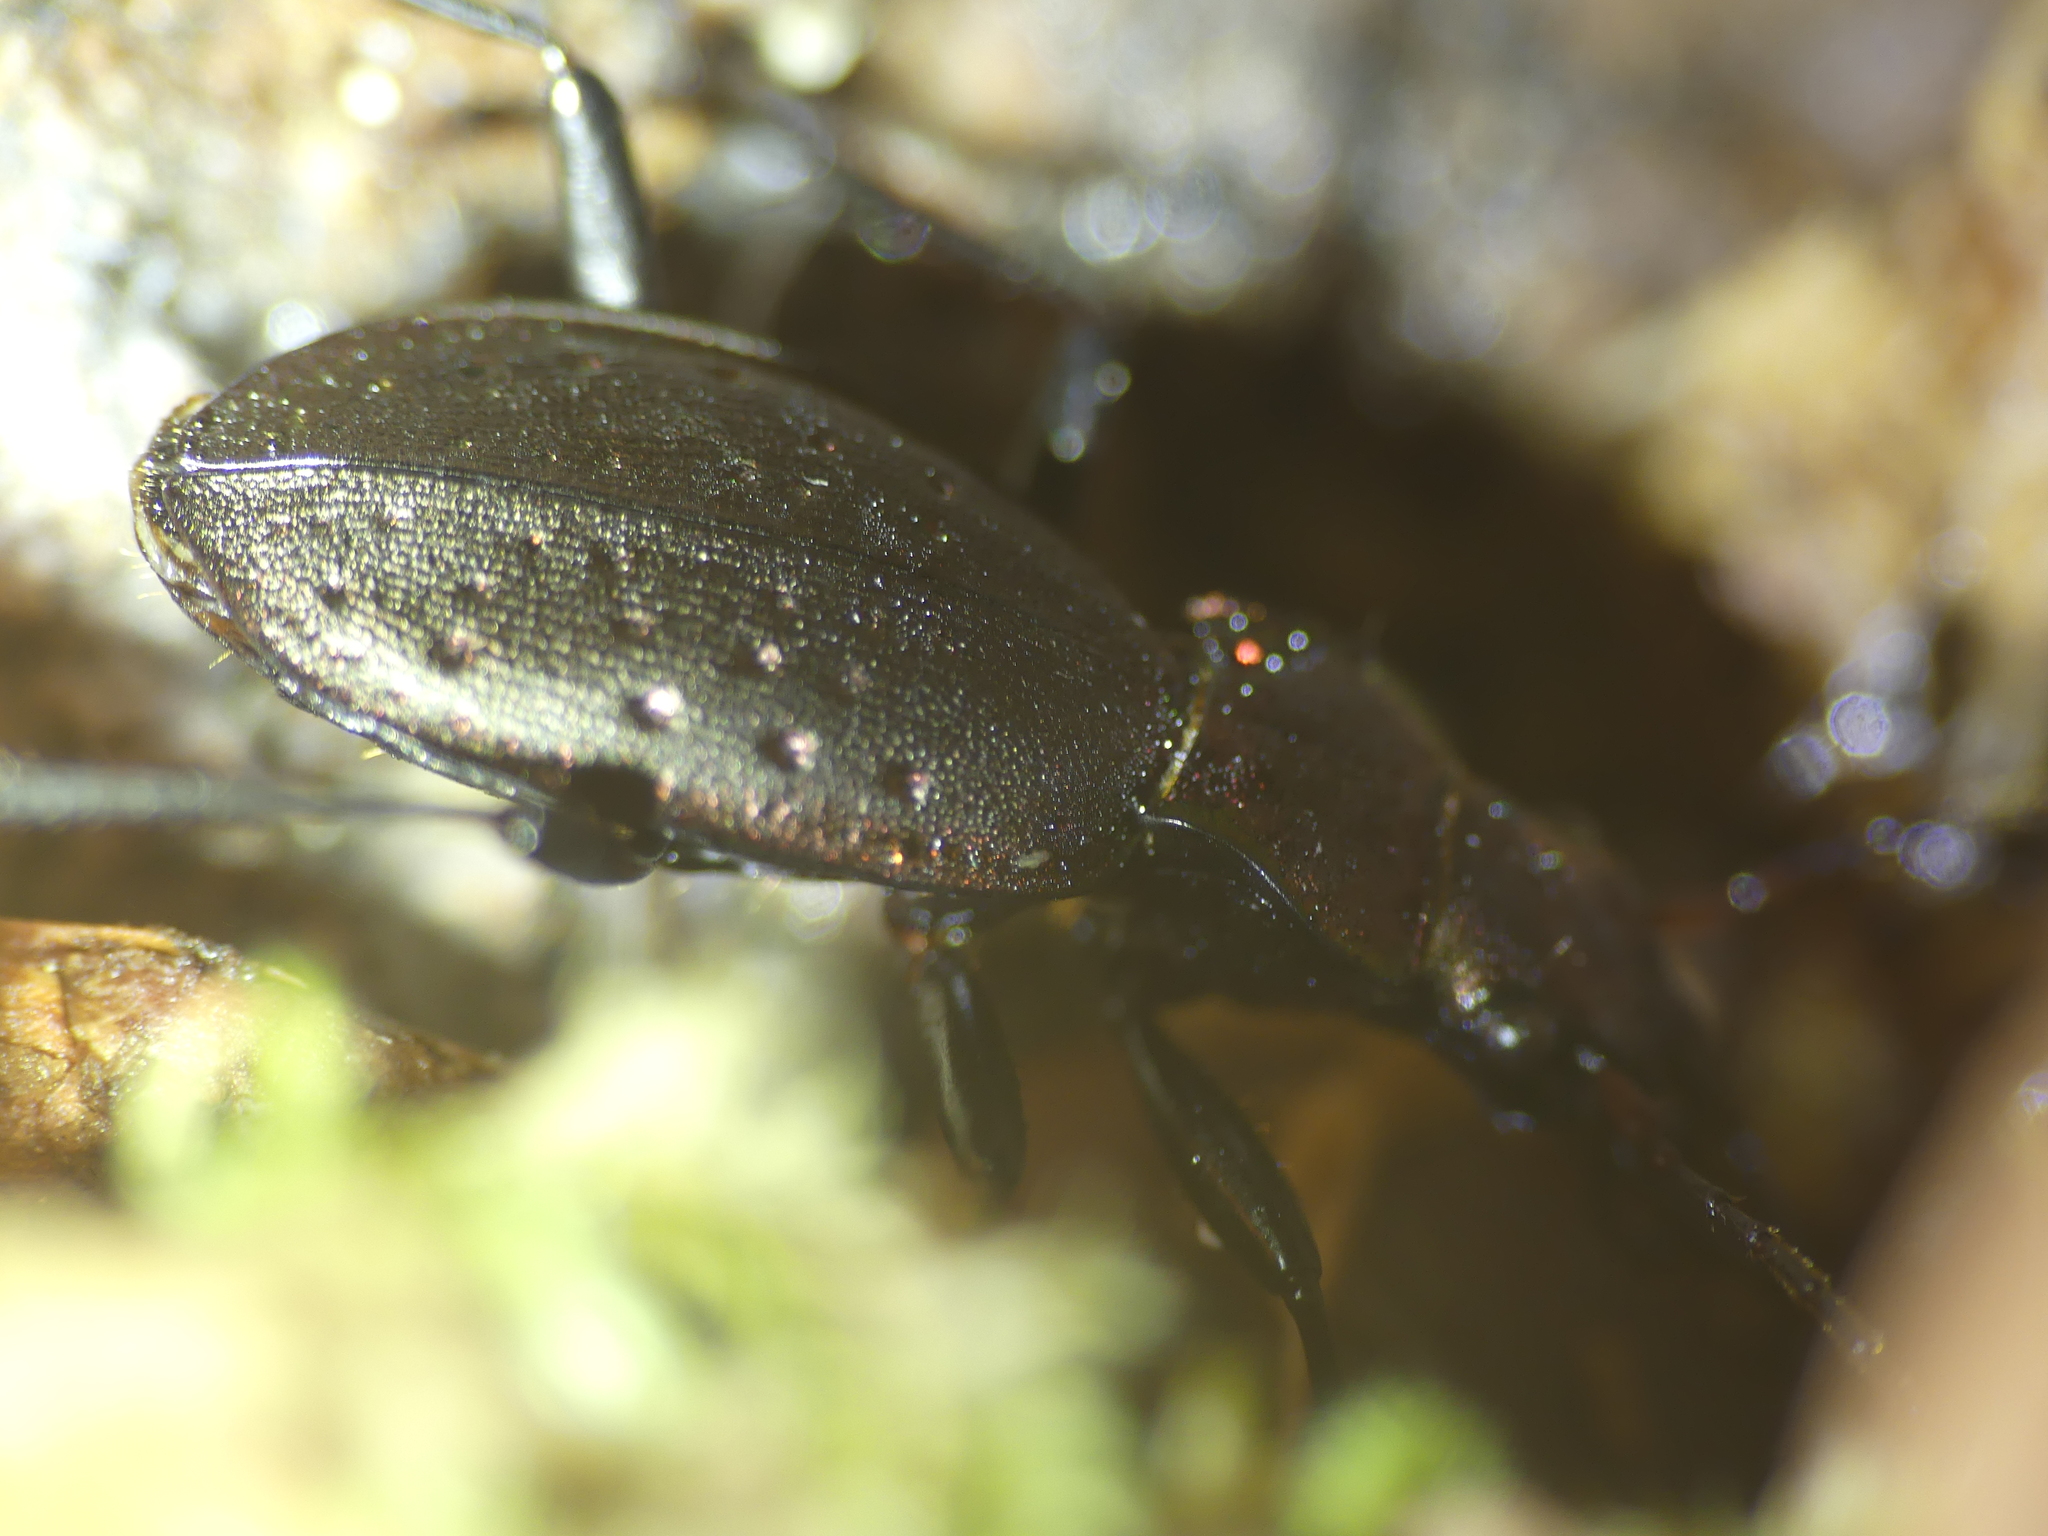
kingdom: Animalia
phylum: Arthropoda
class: Insecta
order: Coleoptera
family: Carabidae
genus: Carabus
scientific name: Carabus irregularis
